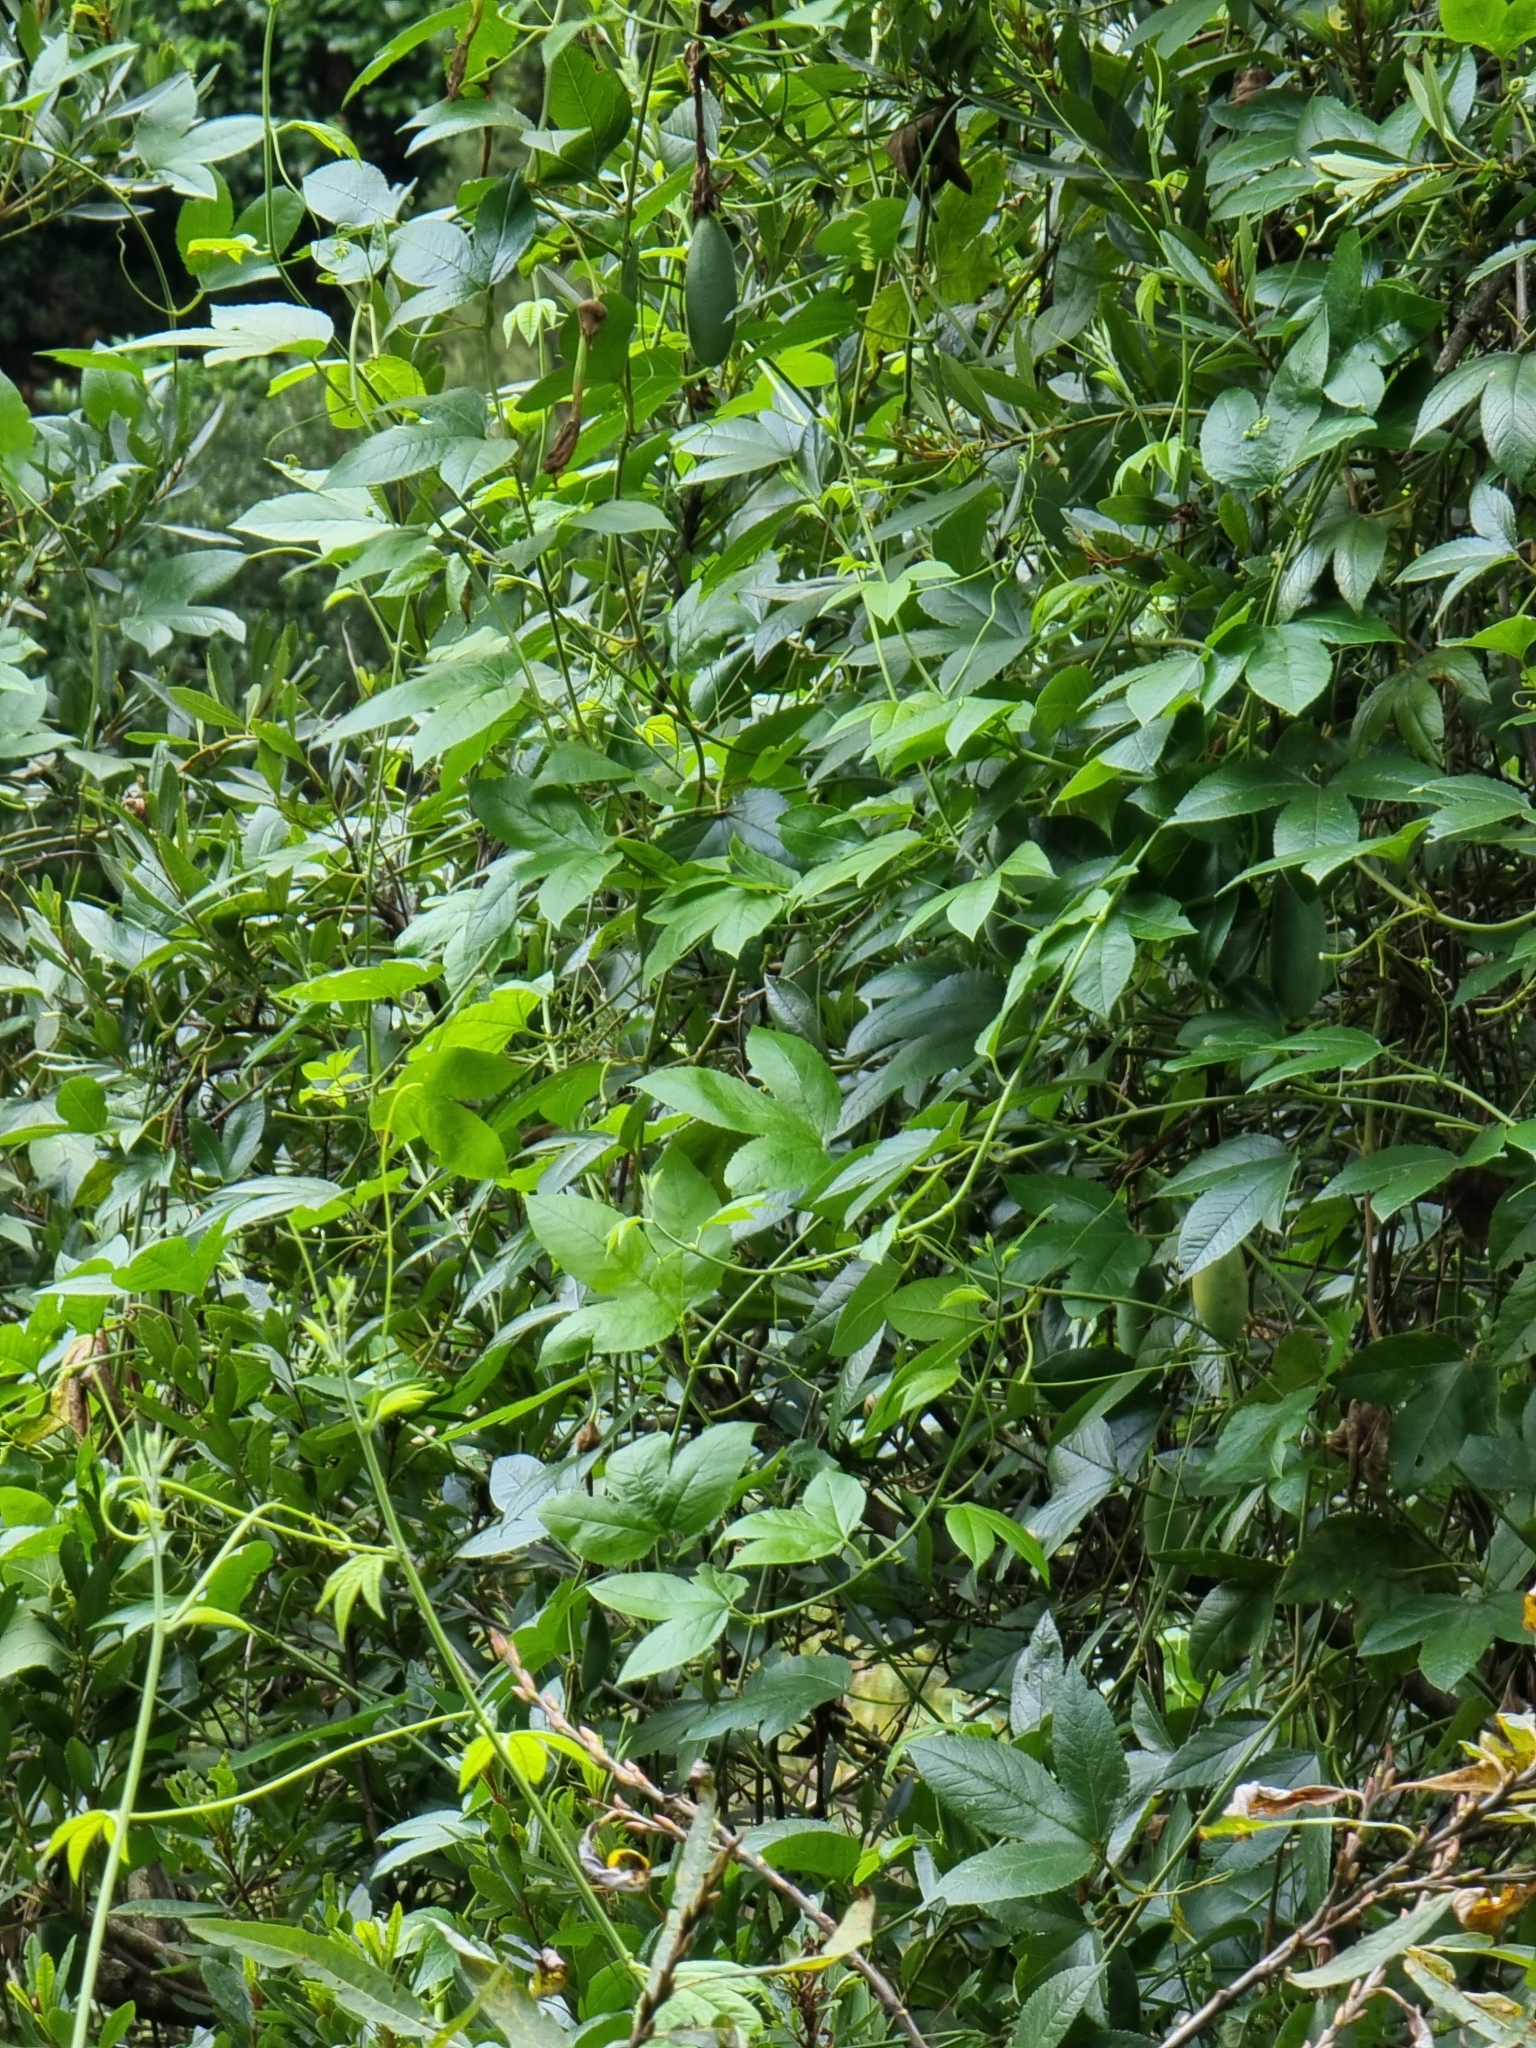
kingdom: Plantae
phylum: Tracheophyta
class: Magnoliopsida
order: Malpighiales
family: Passifloraceae
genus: Passiflora
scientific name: Passiflora tarminiana
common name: Banana poka
